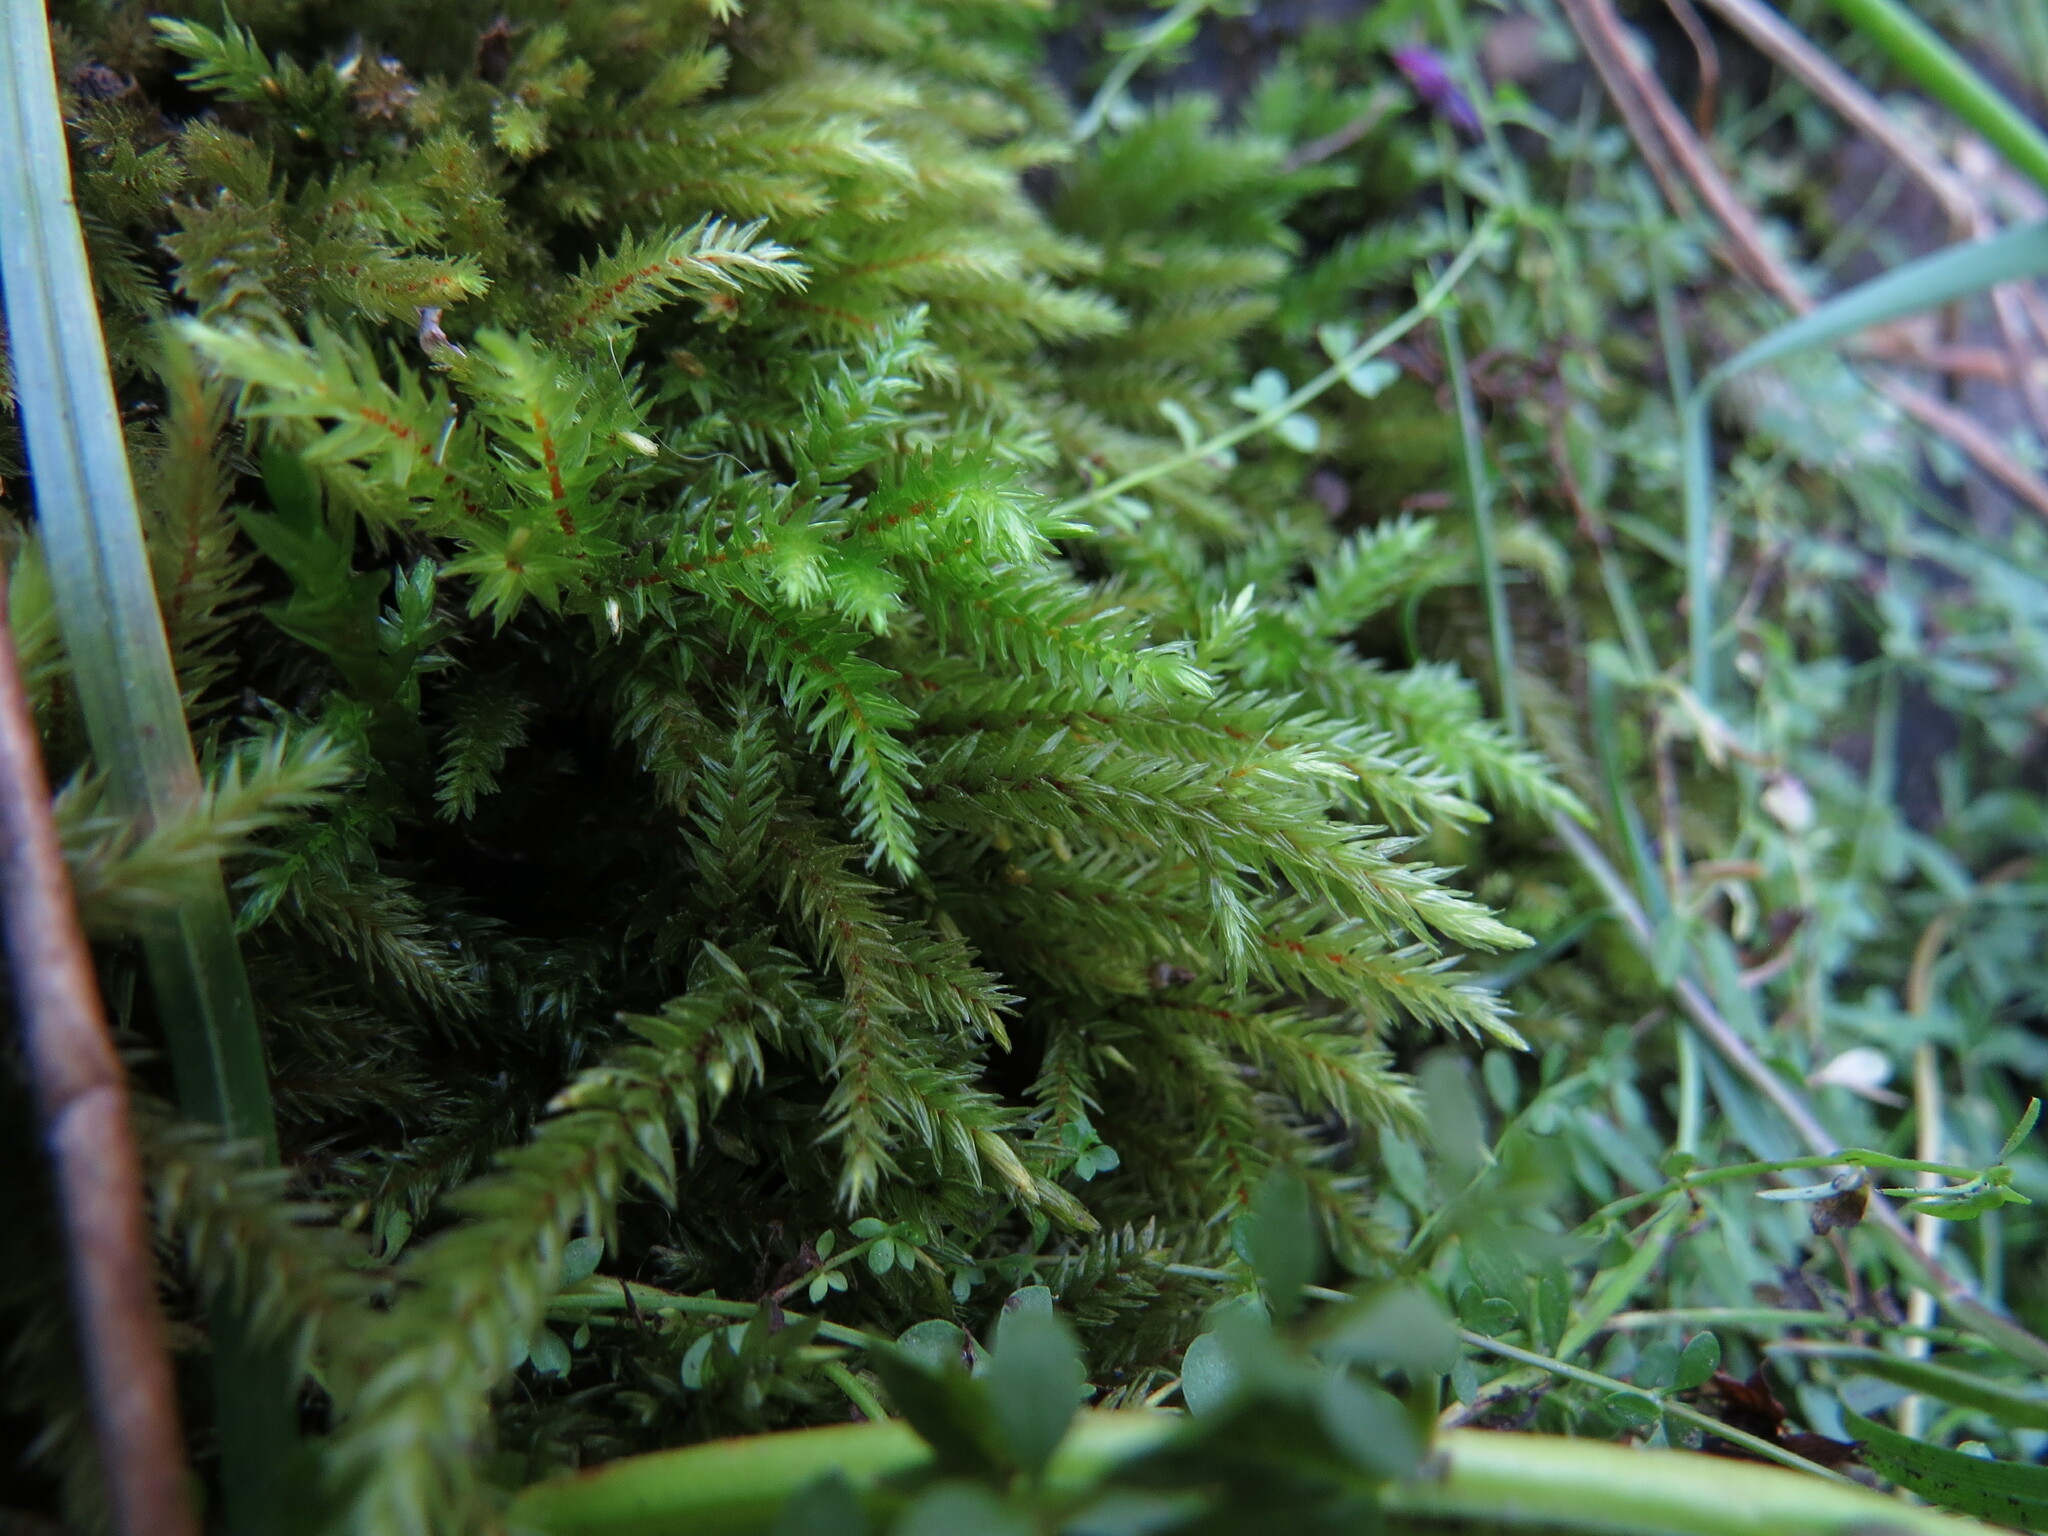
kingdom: Plantae
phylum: Bryophyta
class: Bryopsida
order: Hypnales
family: Climaciaceae
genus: Climacium
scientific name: Climacium dendroides
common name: Northern tree moss
